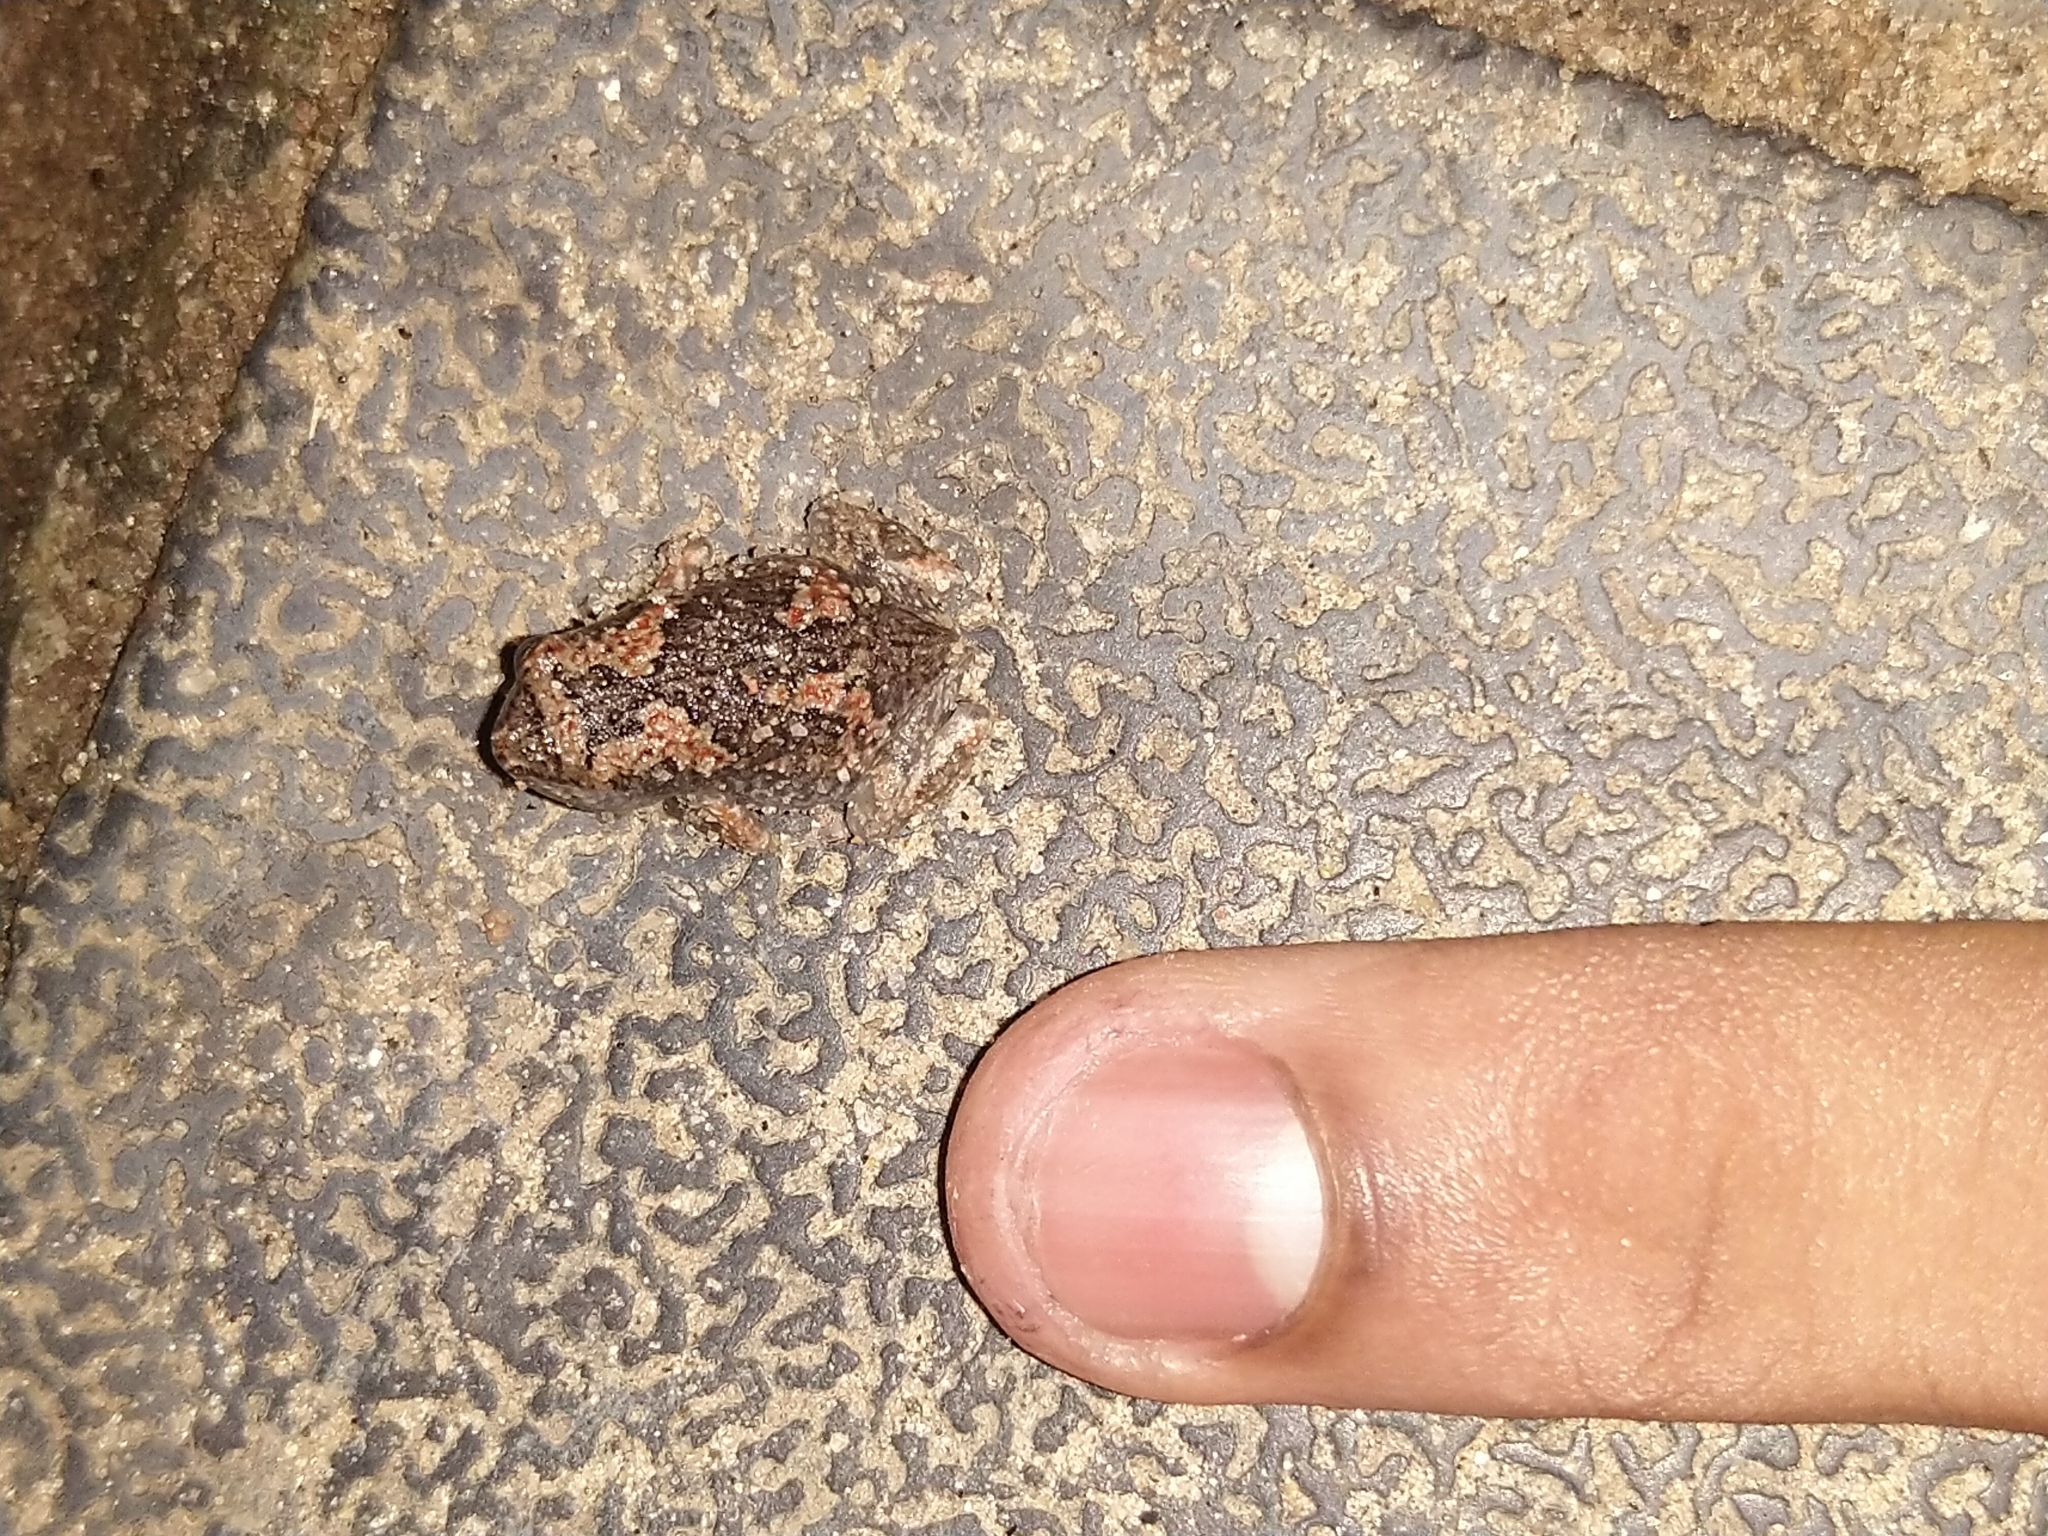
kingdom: Animalia
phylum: Chordata
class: Amphibia
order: Anura
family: Microhylidae
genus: Uperodon
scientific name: Uperodon taprobanicus
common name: Ceylon kaloula
